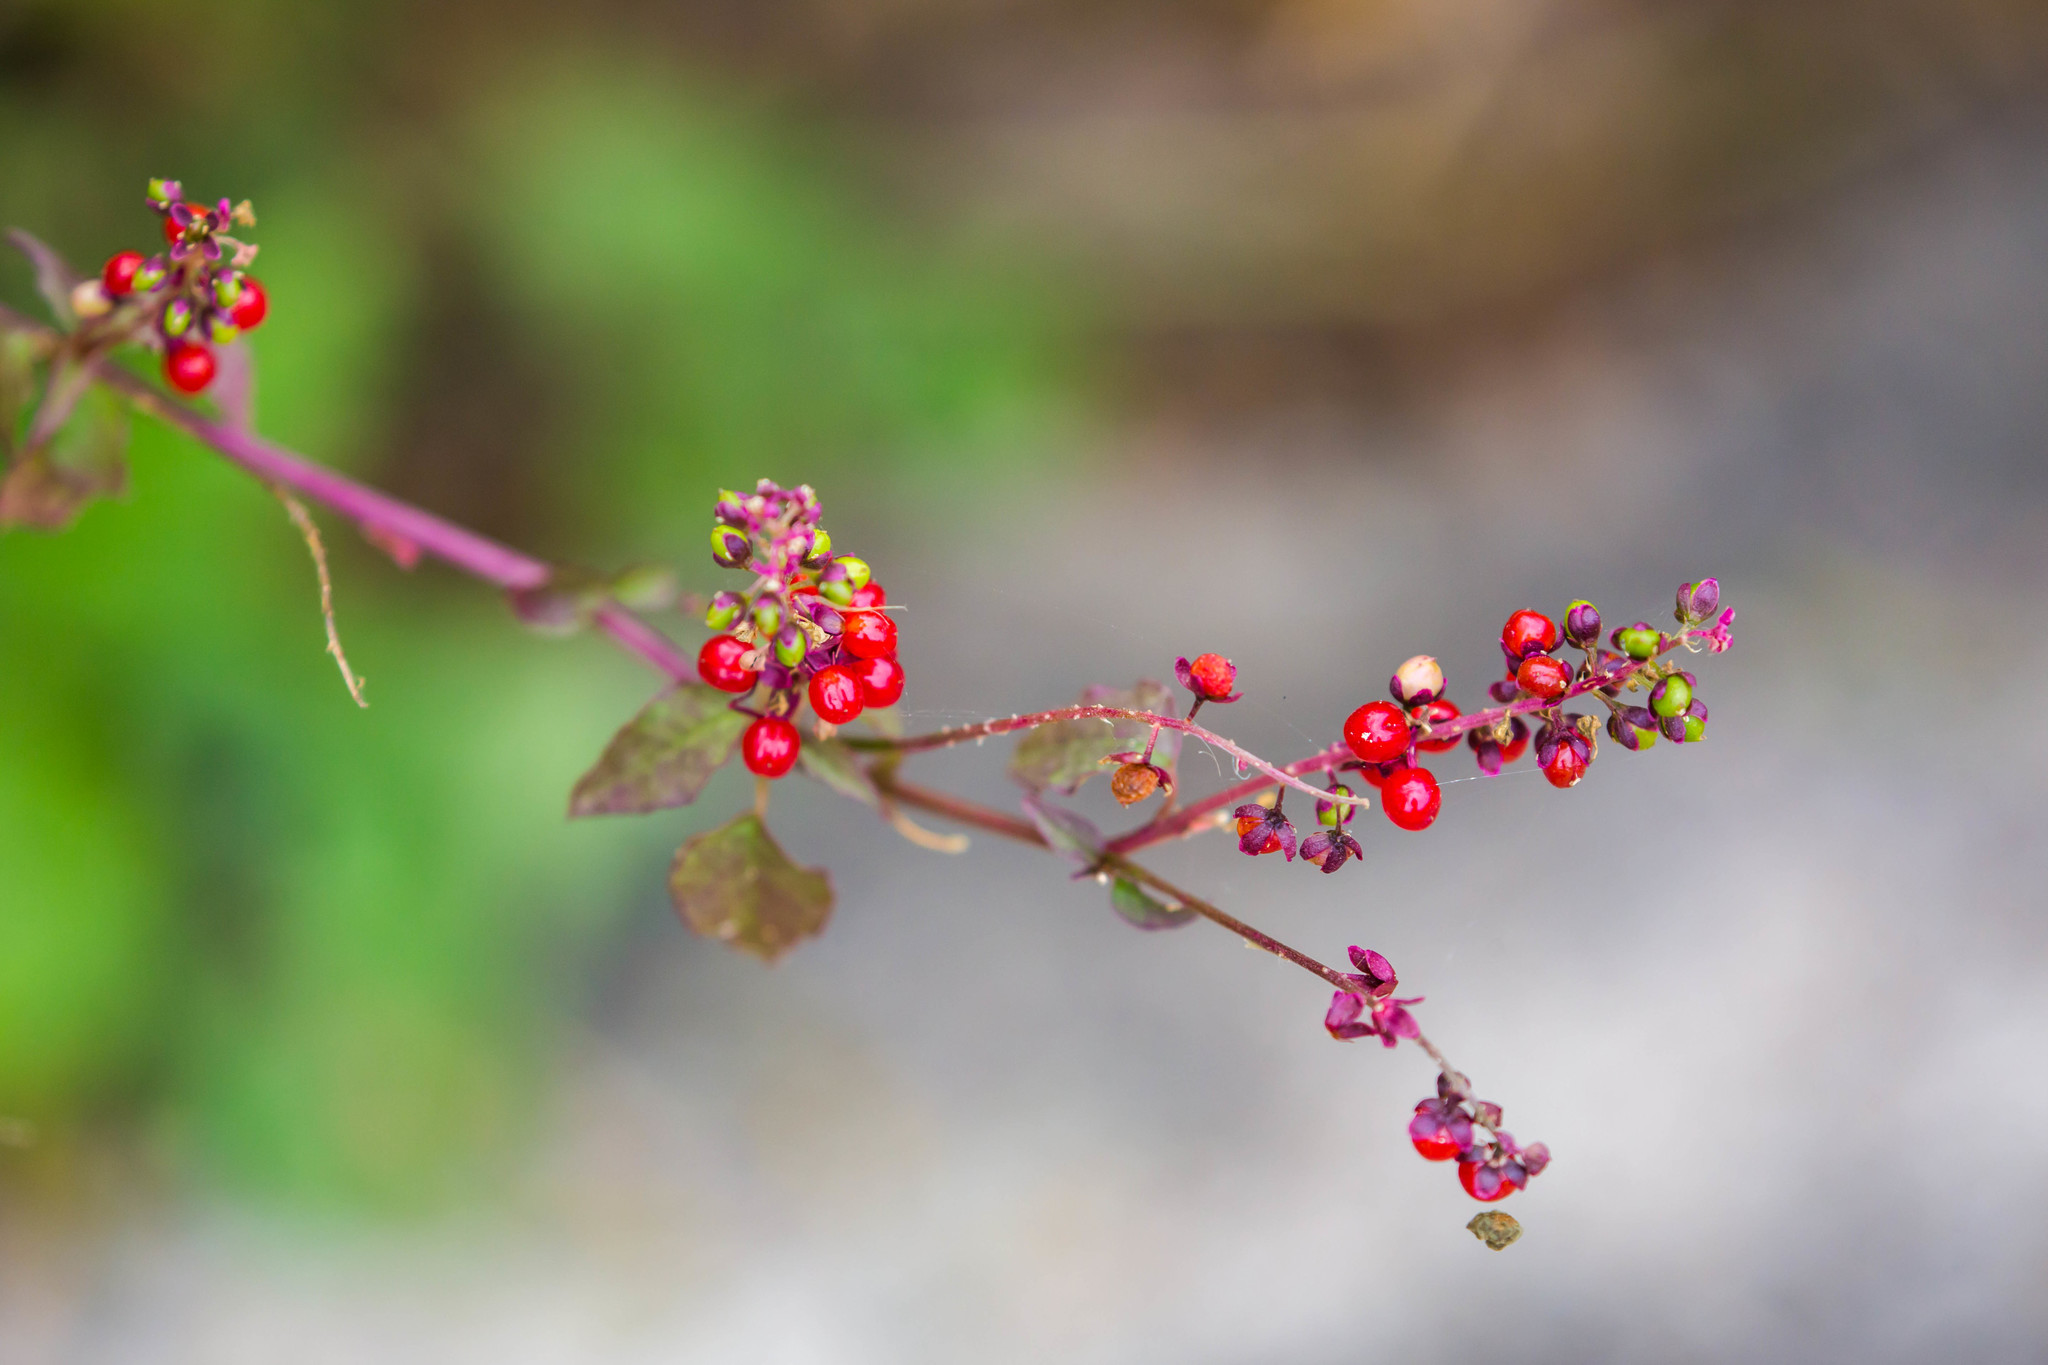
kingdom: Plantae
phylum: Tracheophyta
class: Magnoliopsida
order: Caryophyllales
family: Phytolaccaceae
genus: Rivina
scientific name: Rivina humilis
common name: Rougeplant
